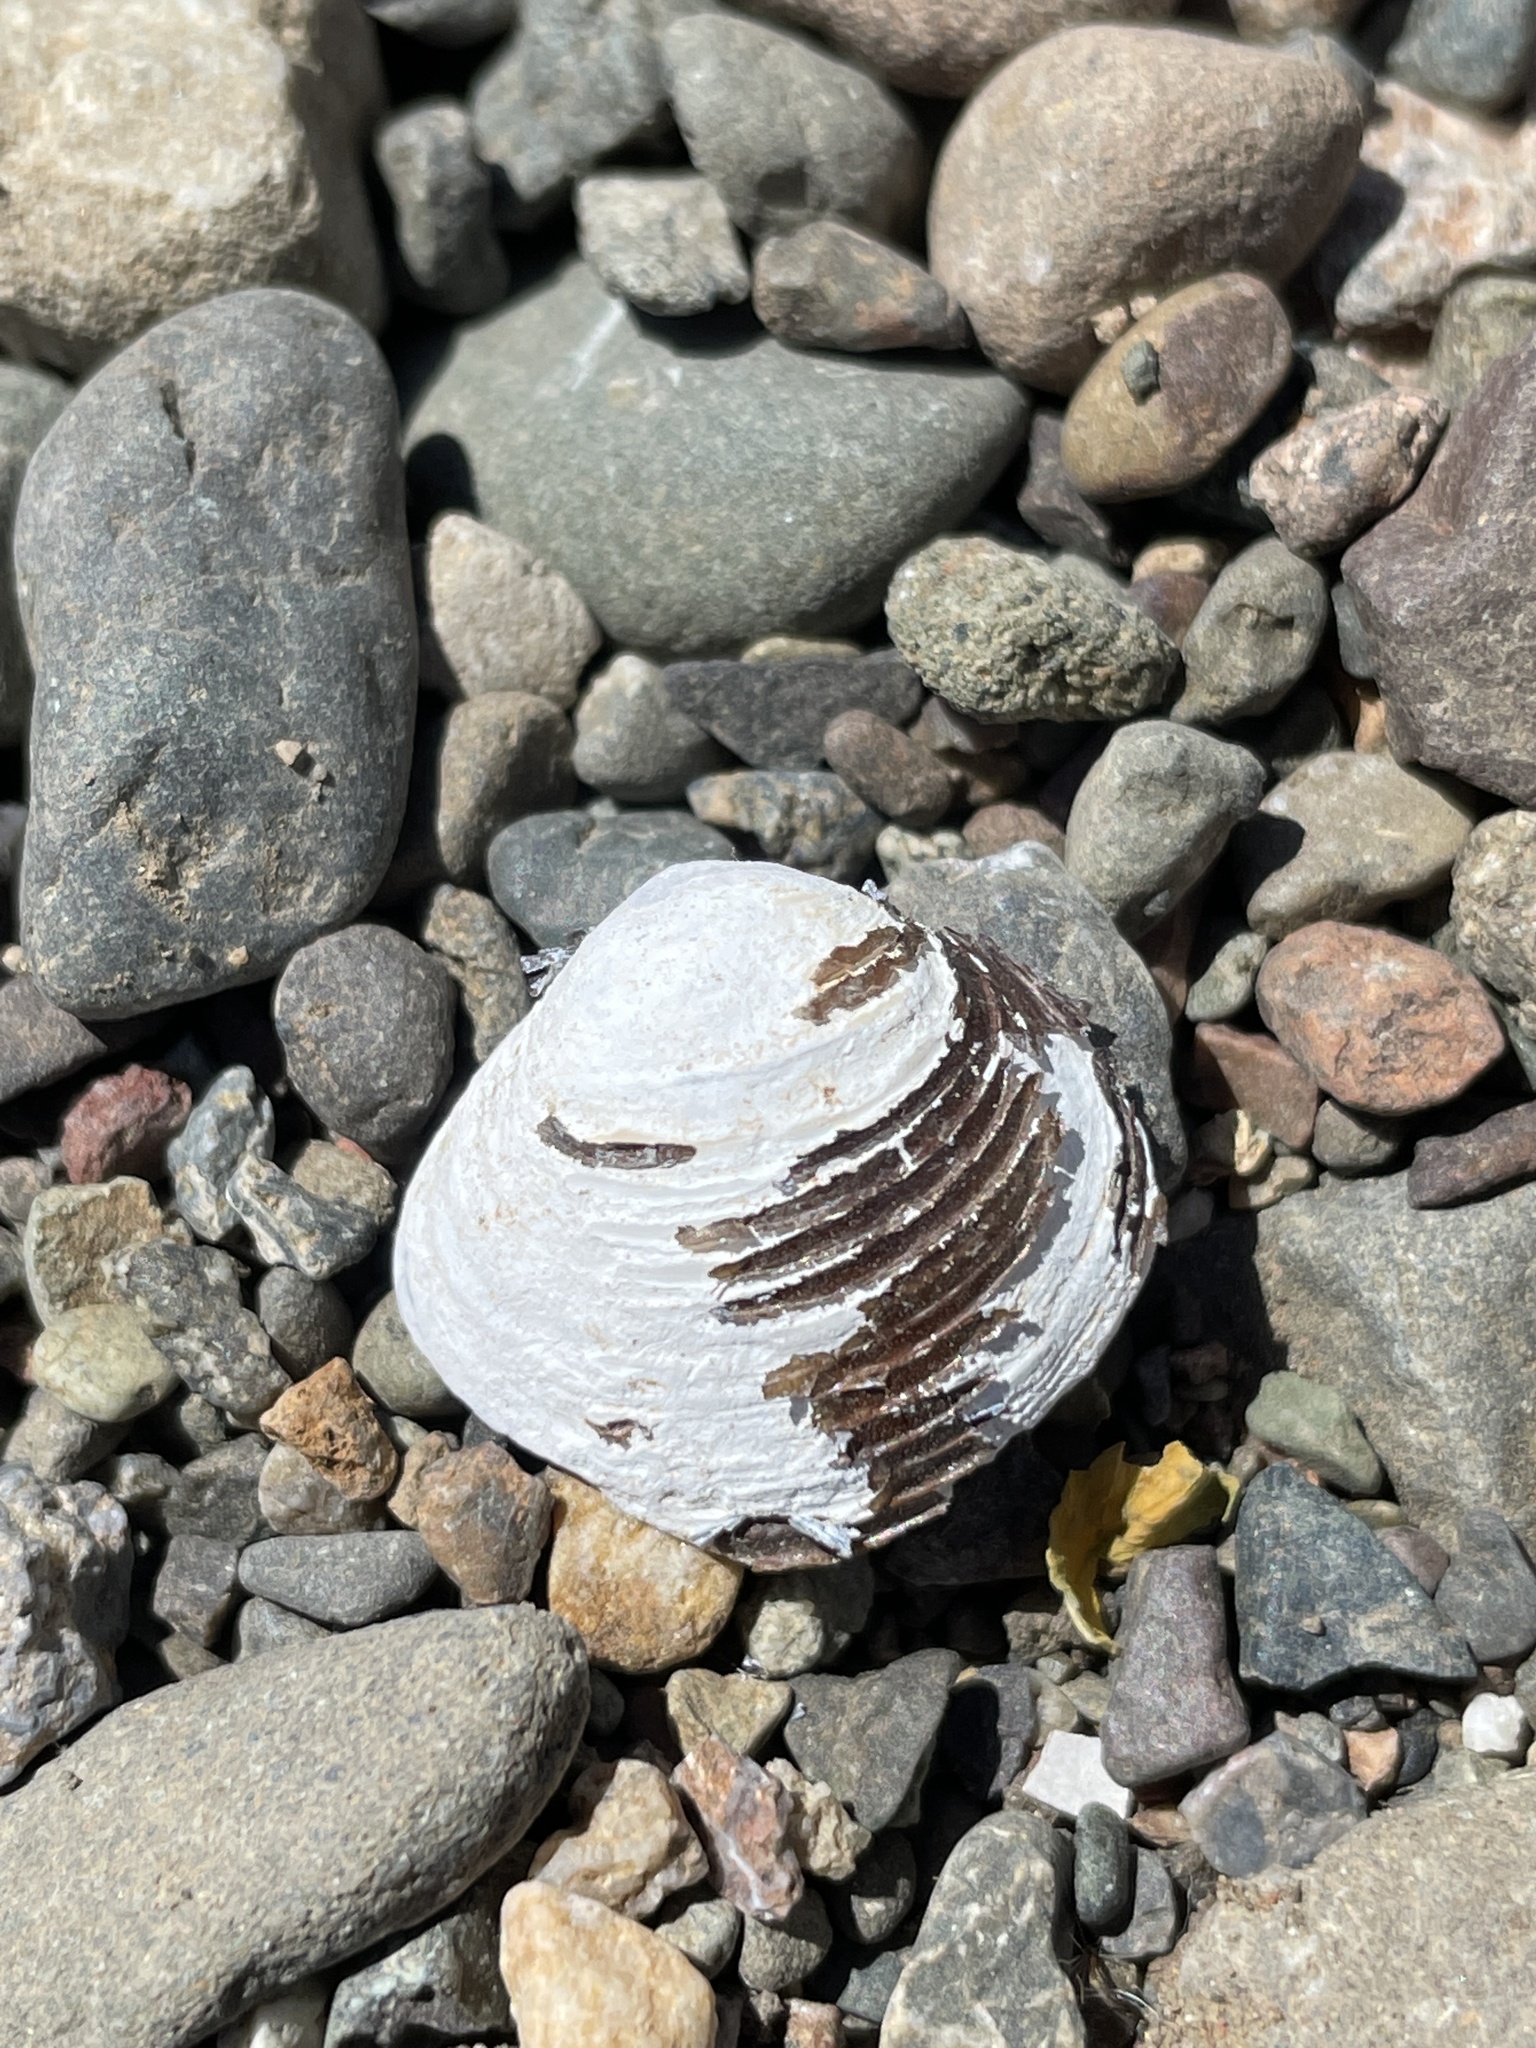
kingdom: Animalia
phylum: Mollusca
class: Bivalvia
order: Venerida
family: Cyrenidae
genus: Corbicula
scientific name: Corbicula fluminea
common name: Asian clam
